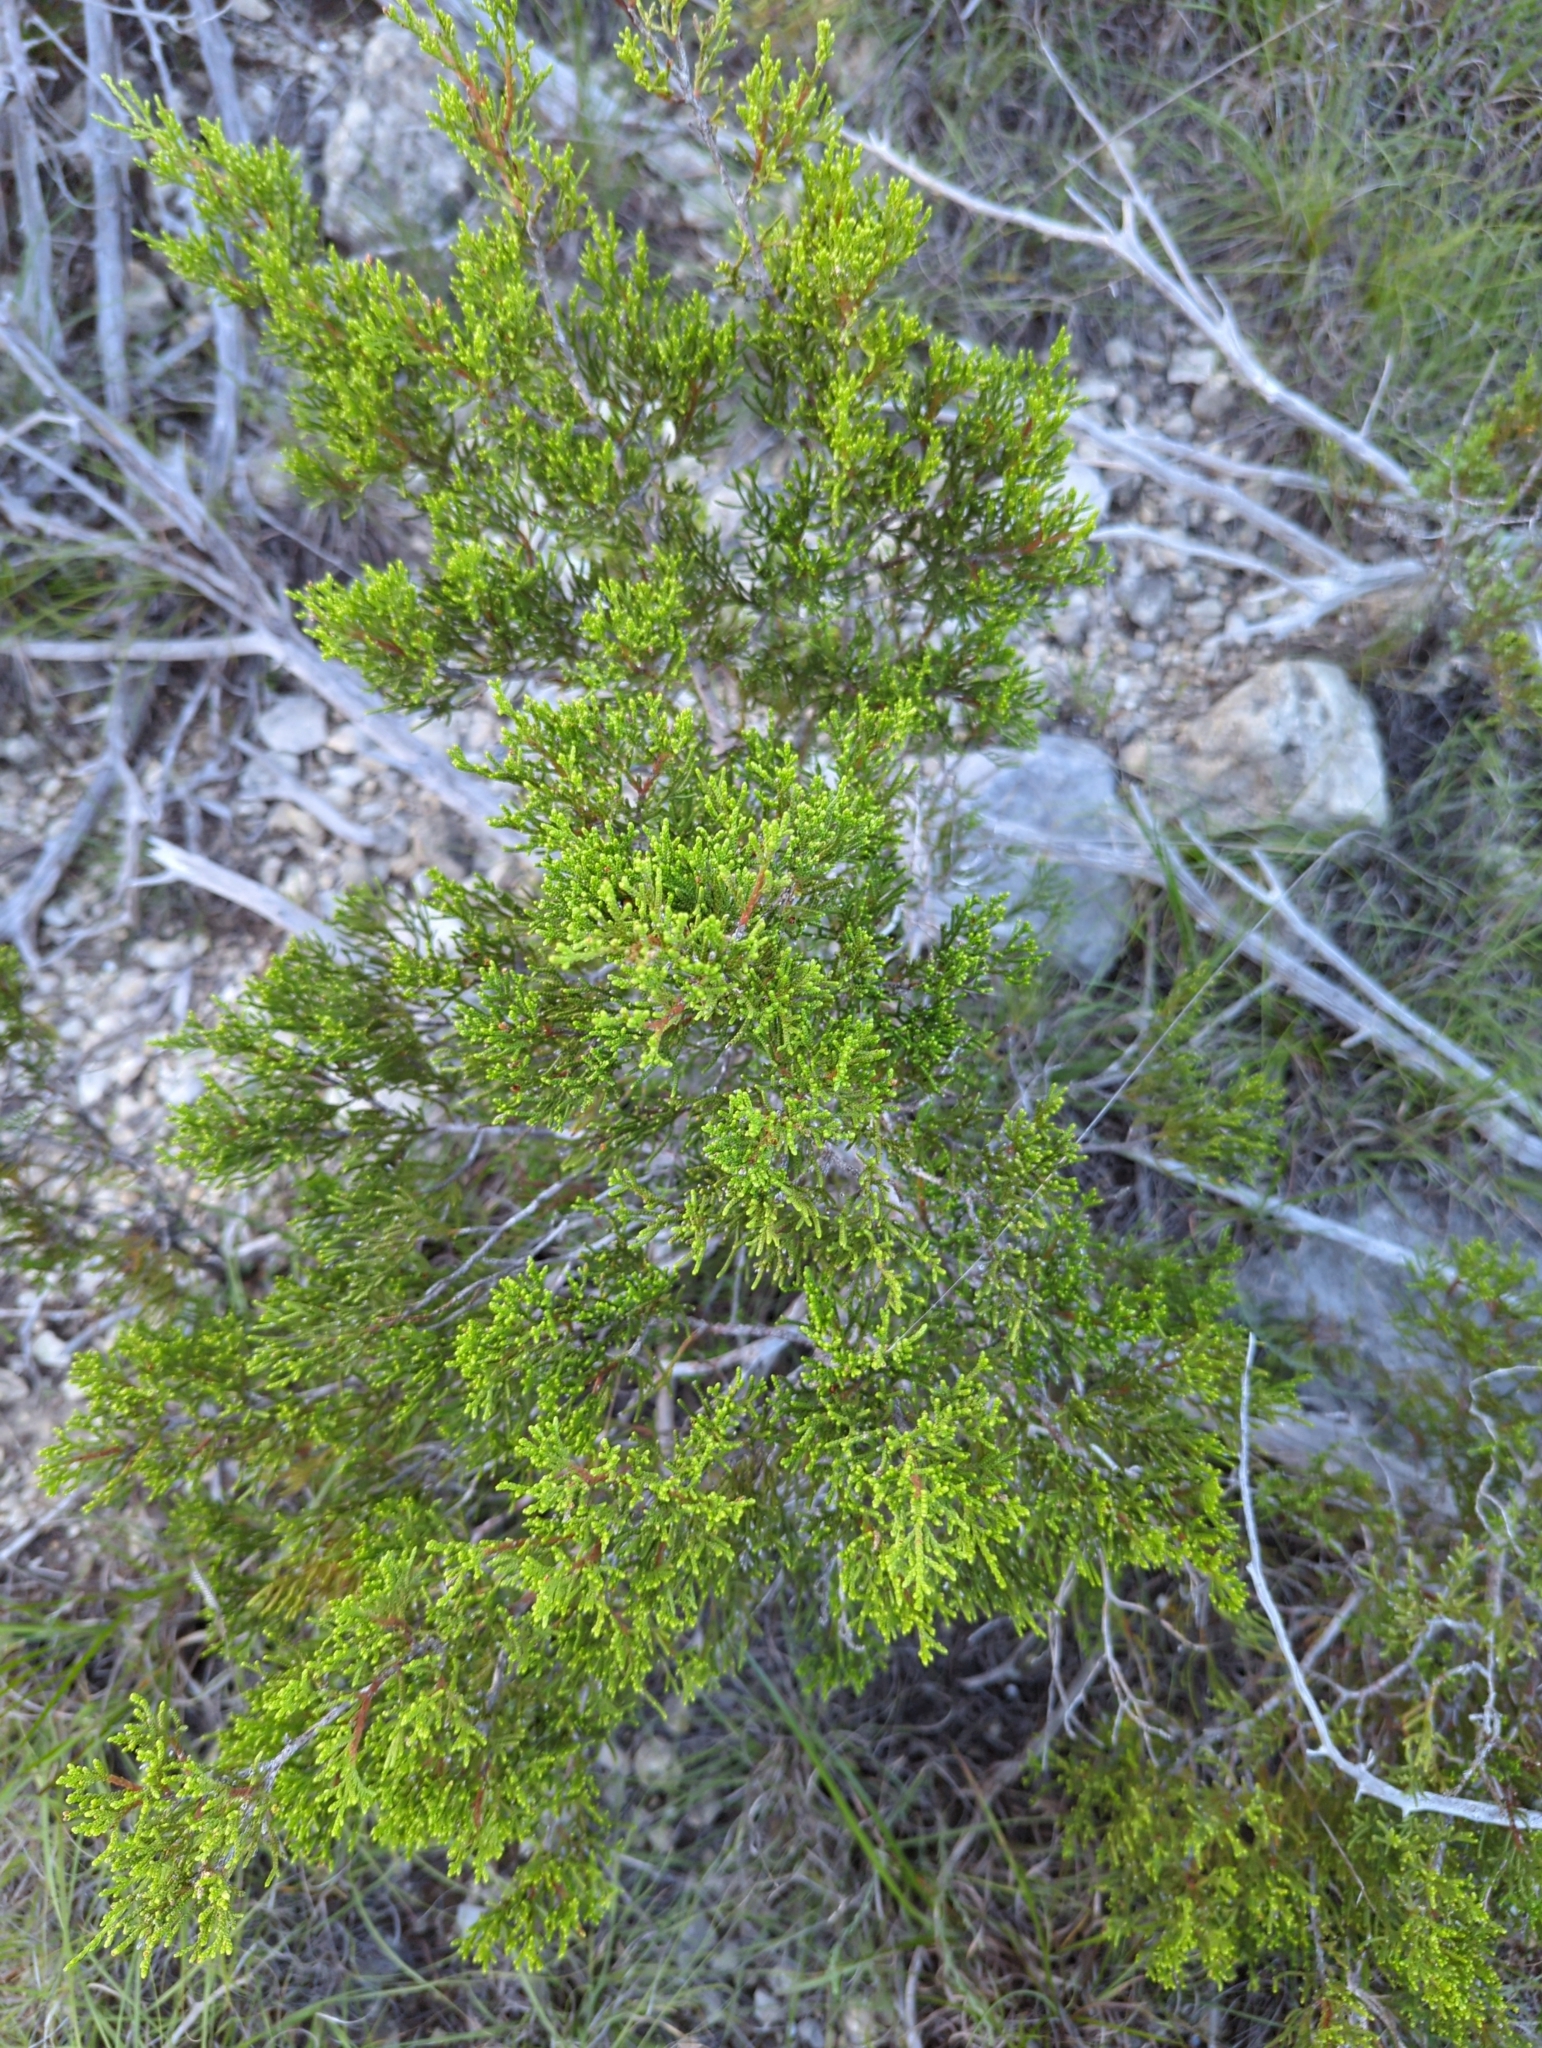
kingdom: Plantae
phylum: Tracheophyta
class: Pinopsida
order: Pinales
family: Cupressaceae
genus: Juniperus
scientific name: Juniperus ashei
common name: Mexican juniper
